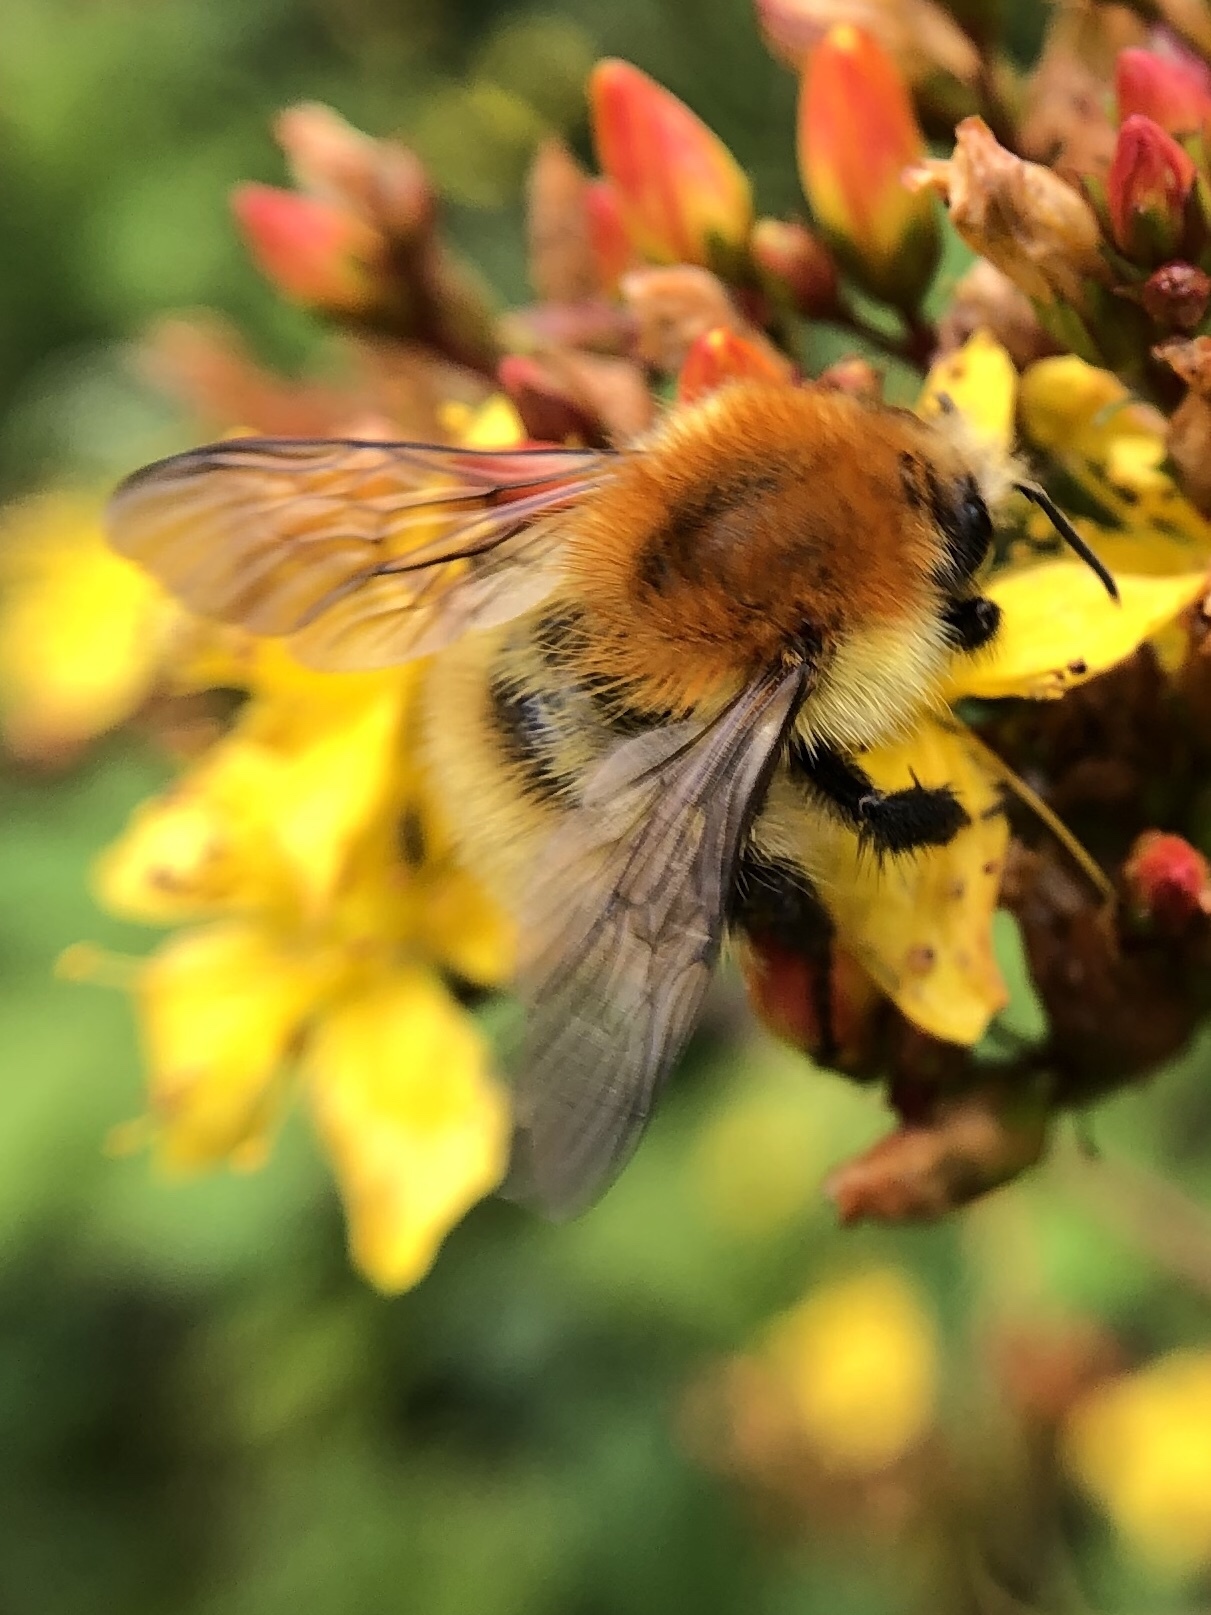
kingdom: Animalia
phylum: Arthropoda
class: Insecta
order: Hymenoptera
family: Apidae
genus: Bombus
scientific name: Bombus pascuorum
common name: Common carder bee
